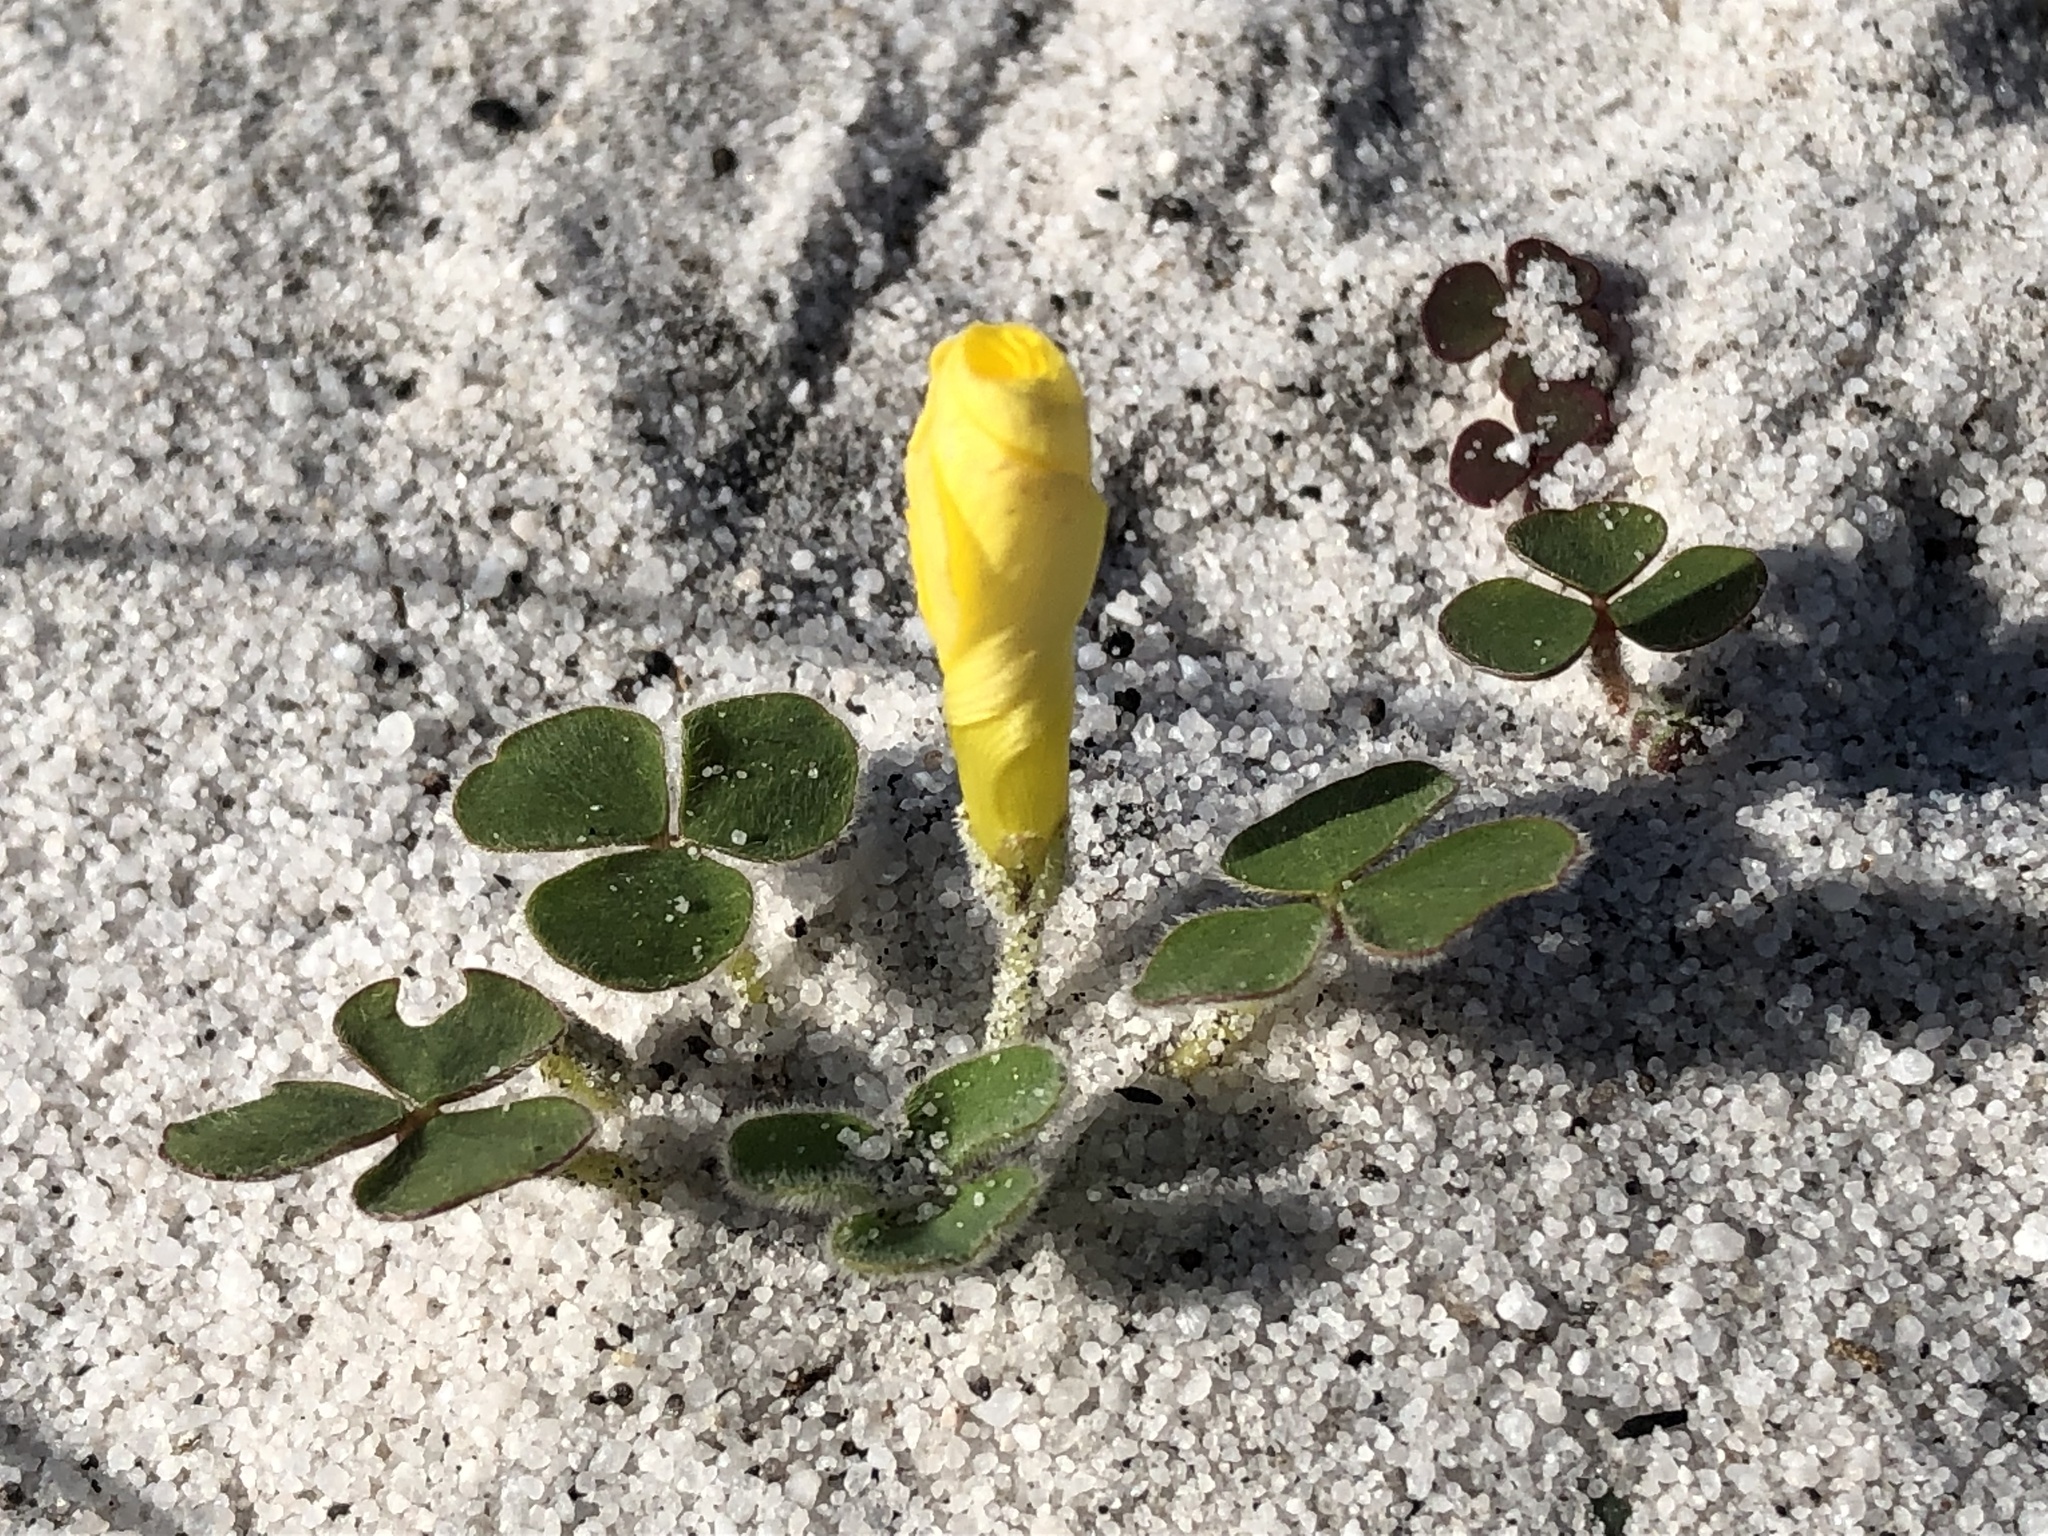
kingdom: Plantae
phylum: Tracheophyta
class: Magnoliopsida
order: Oxalidales
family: Oxalidaceae
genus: Oxalis
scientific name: Oxalis luteola
